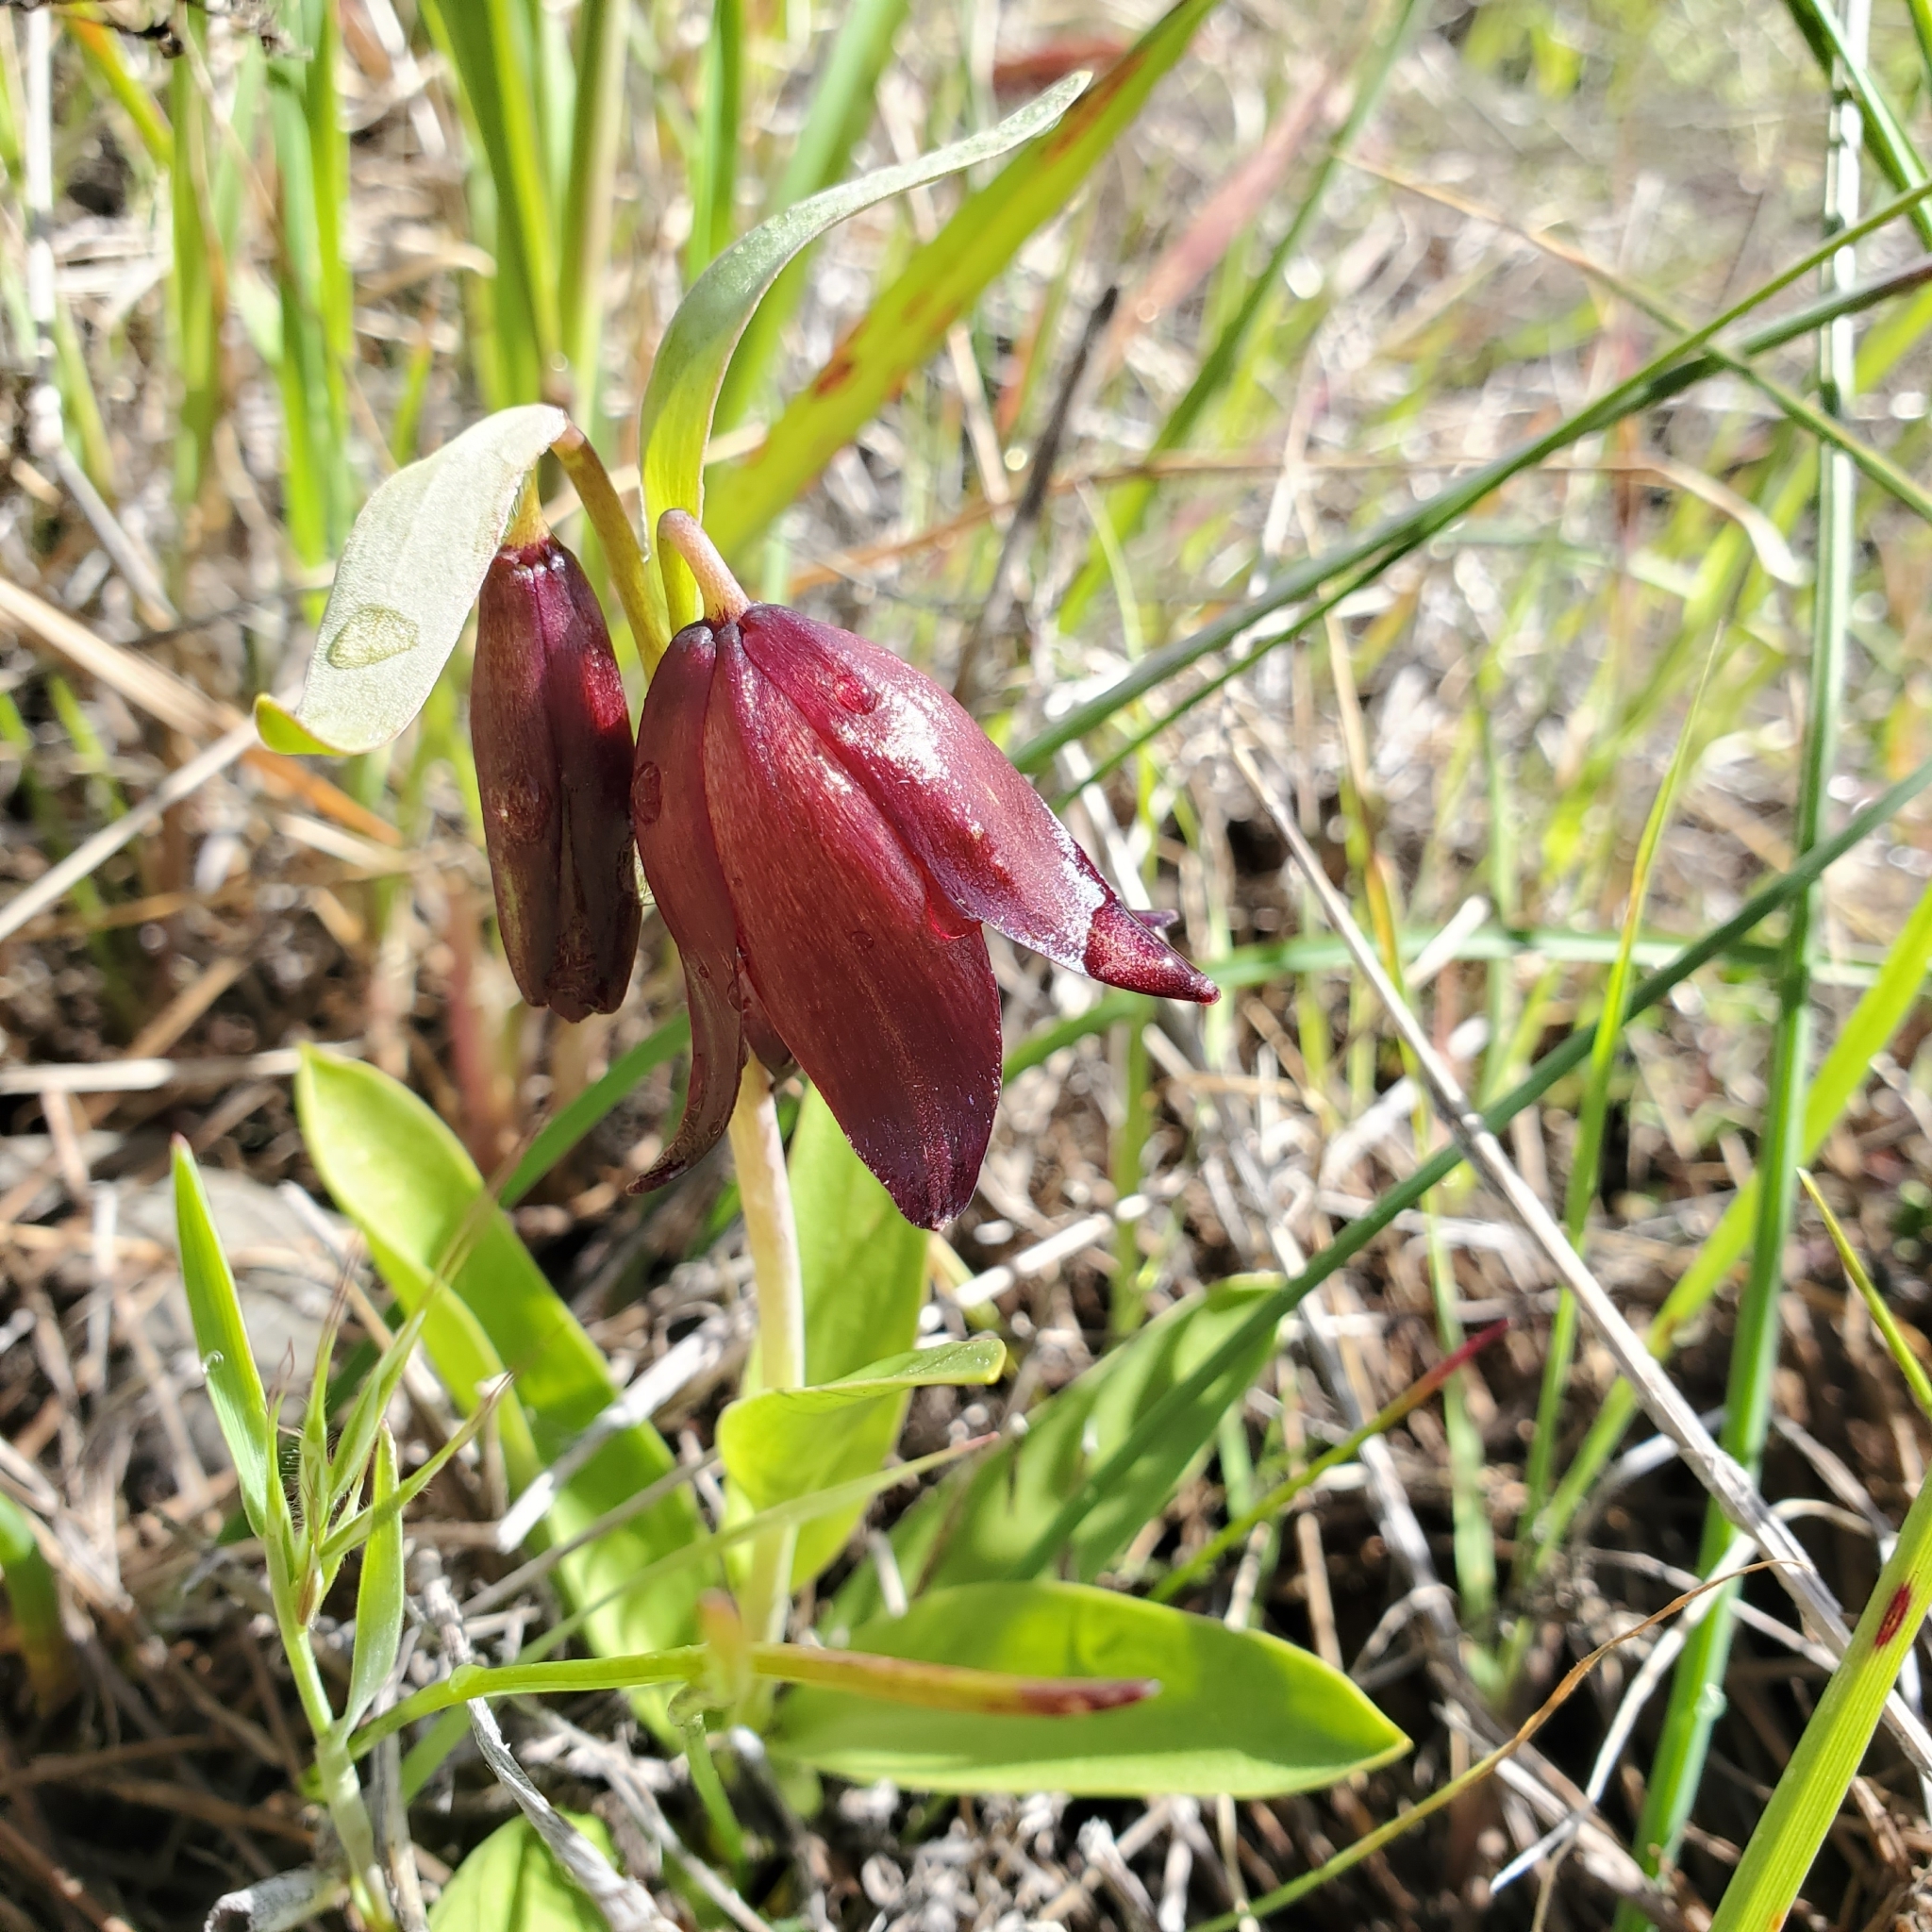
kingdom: Plantae
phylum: Tracheophyta
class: Liliopsida
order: Liliales
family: Liliaceae
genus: Fritillaria
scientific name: Fritillaria biflora
